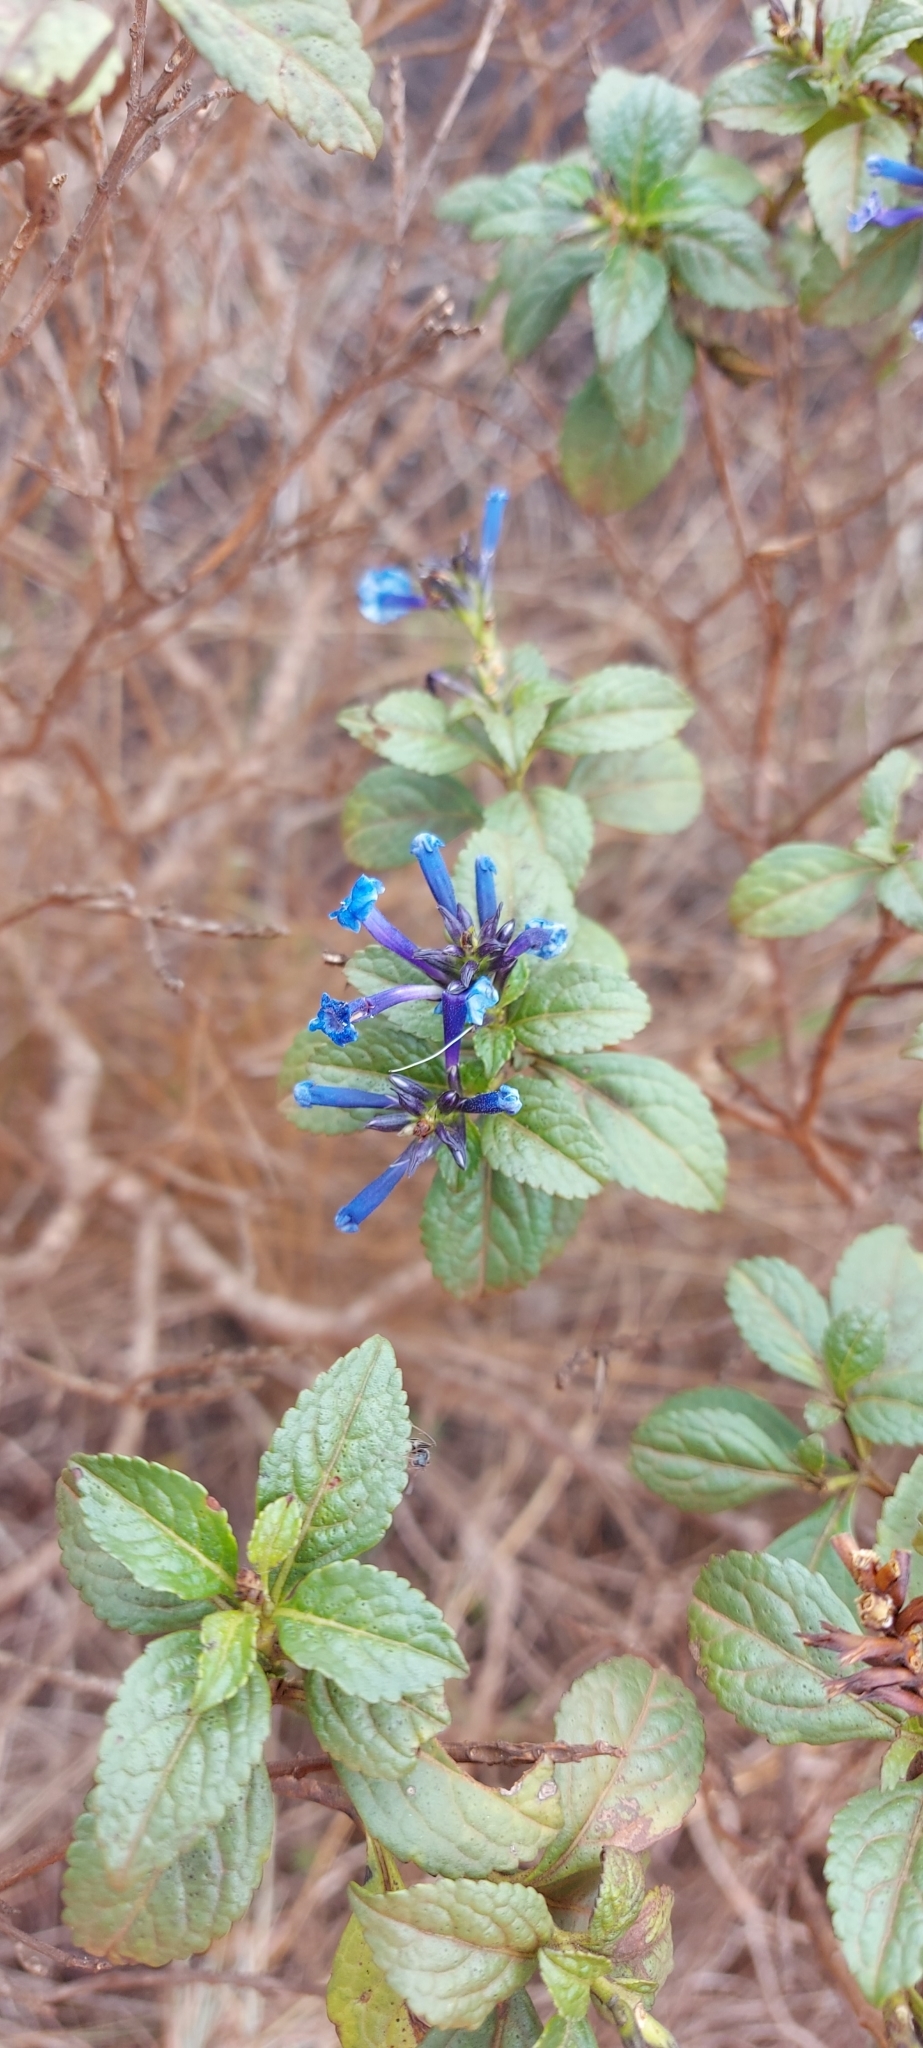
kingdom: Plantae
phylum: Tracheophyta
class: Magnoliopsida
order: Lamiales
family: Verbenaceae
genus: Stachytarpheta
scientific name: Stachytarpheta glabra
